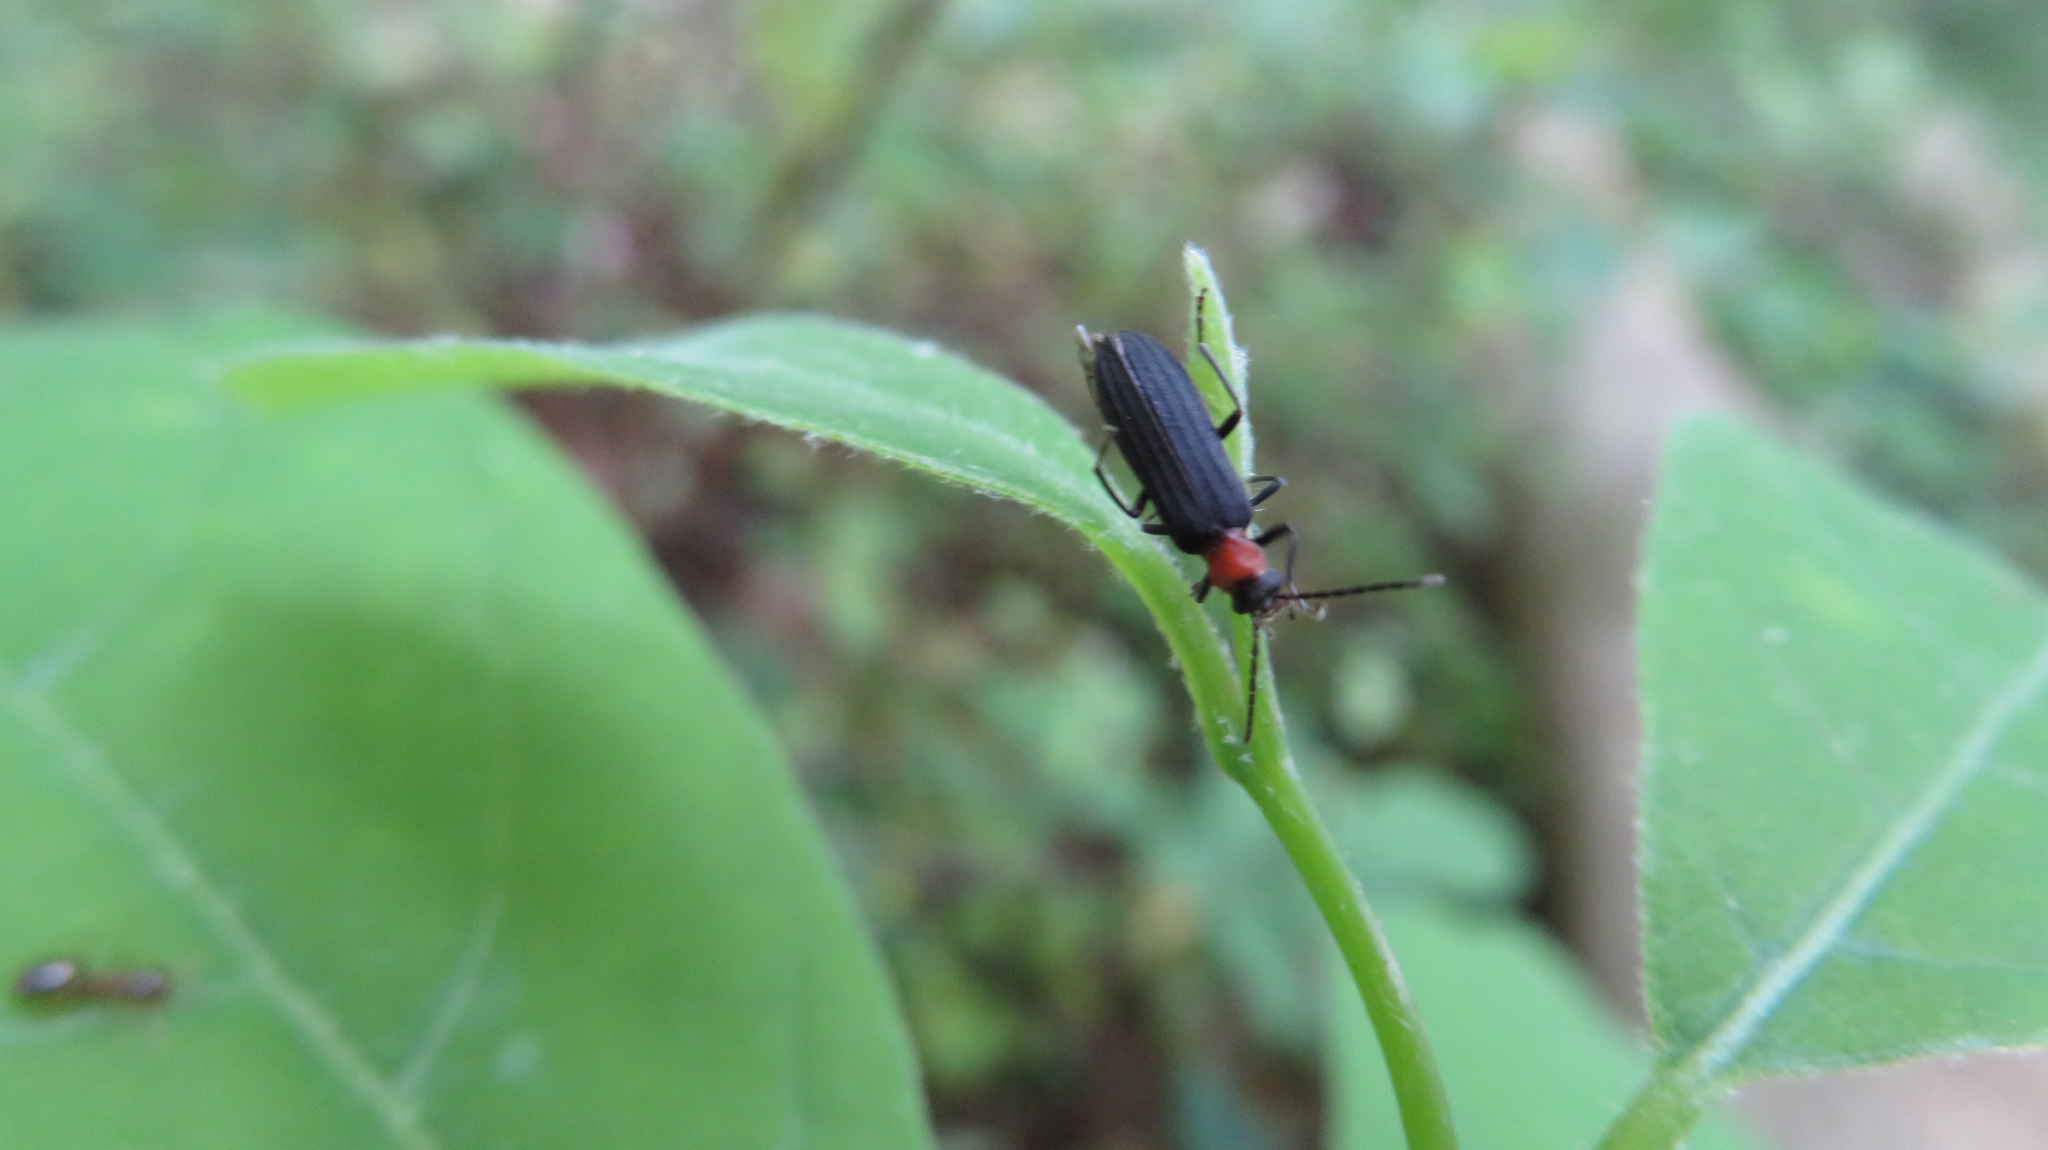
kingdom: Animalia
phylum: Arthropoda
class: Insecta
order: Coleoptera
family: Oedemeridae
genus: Ischnomera
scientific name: Ischnomera
